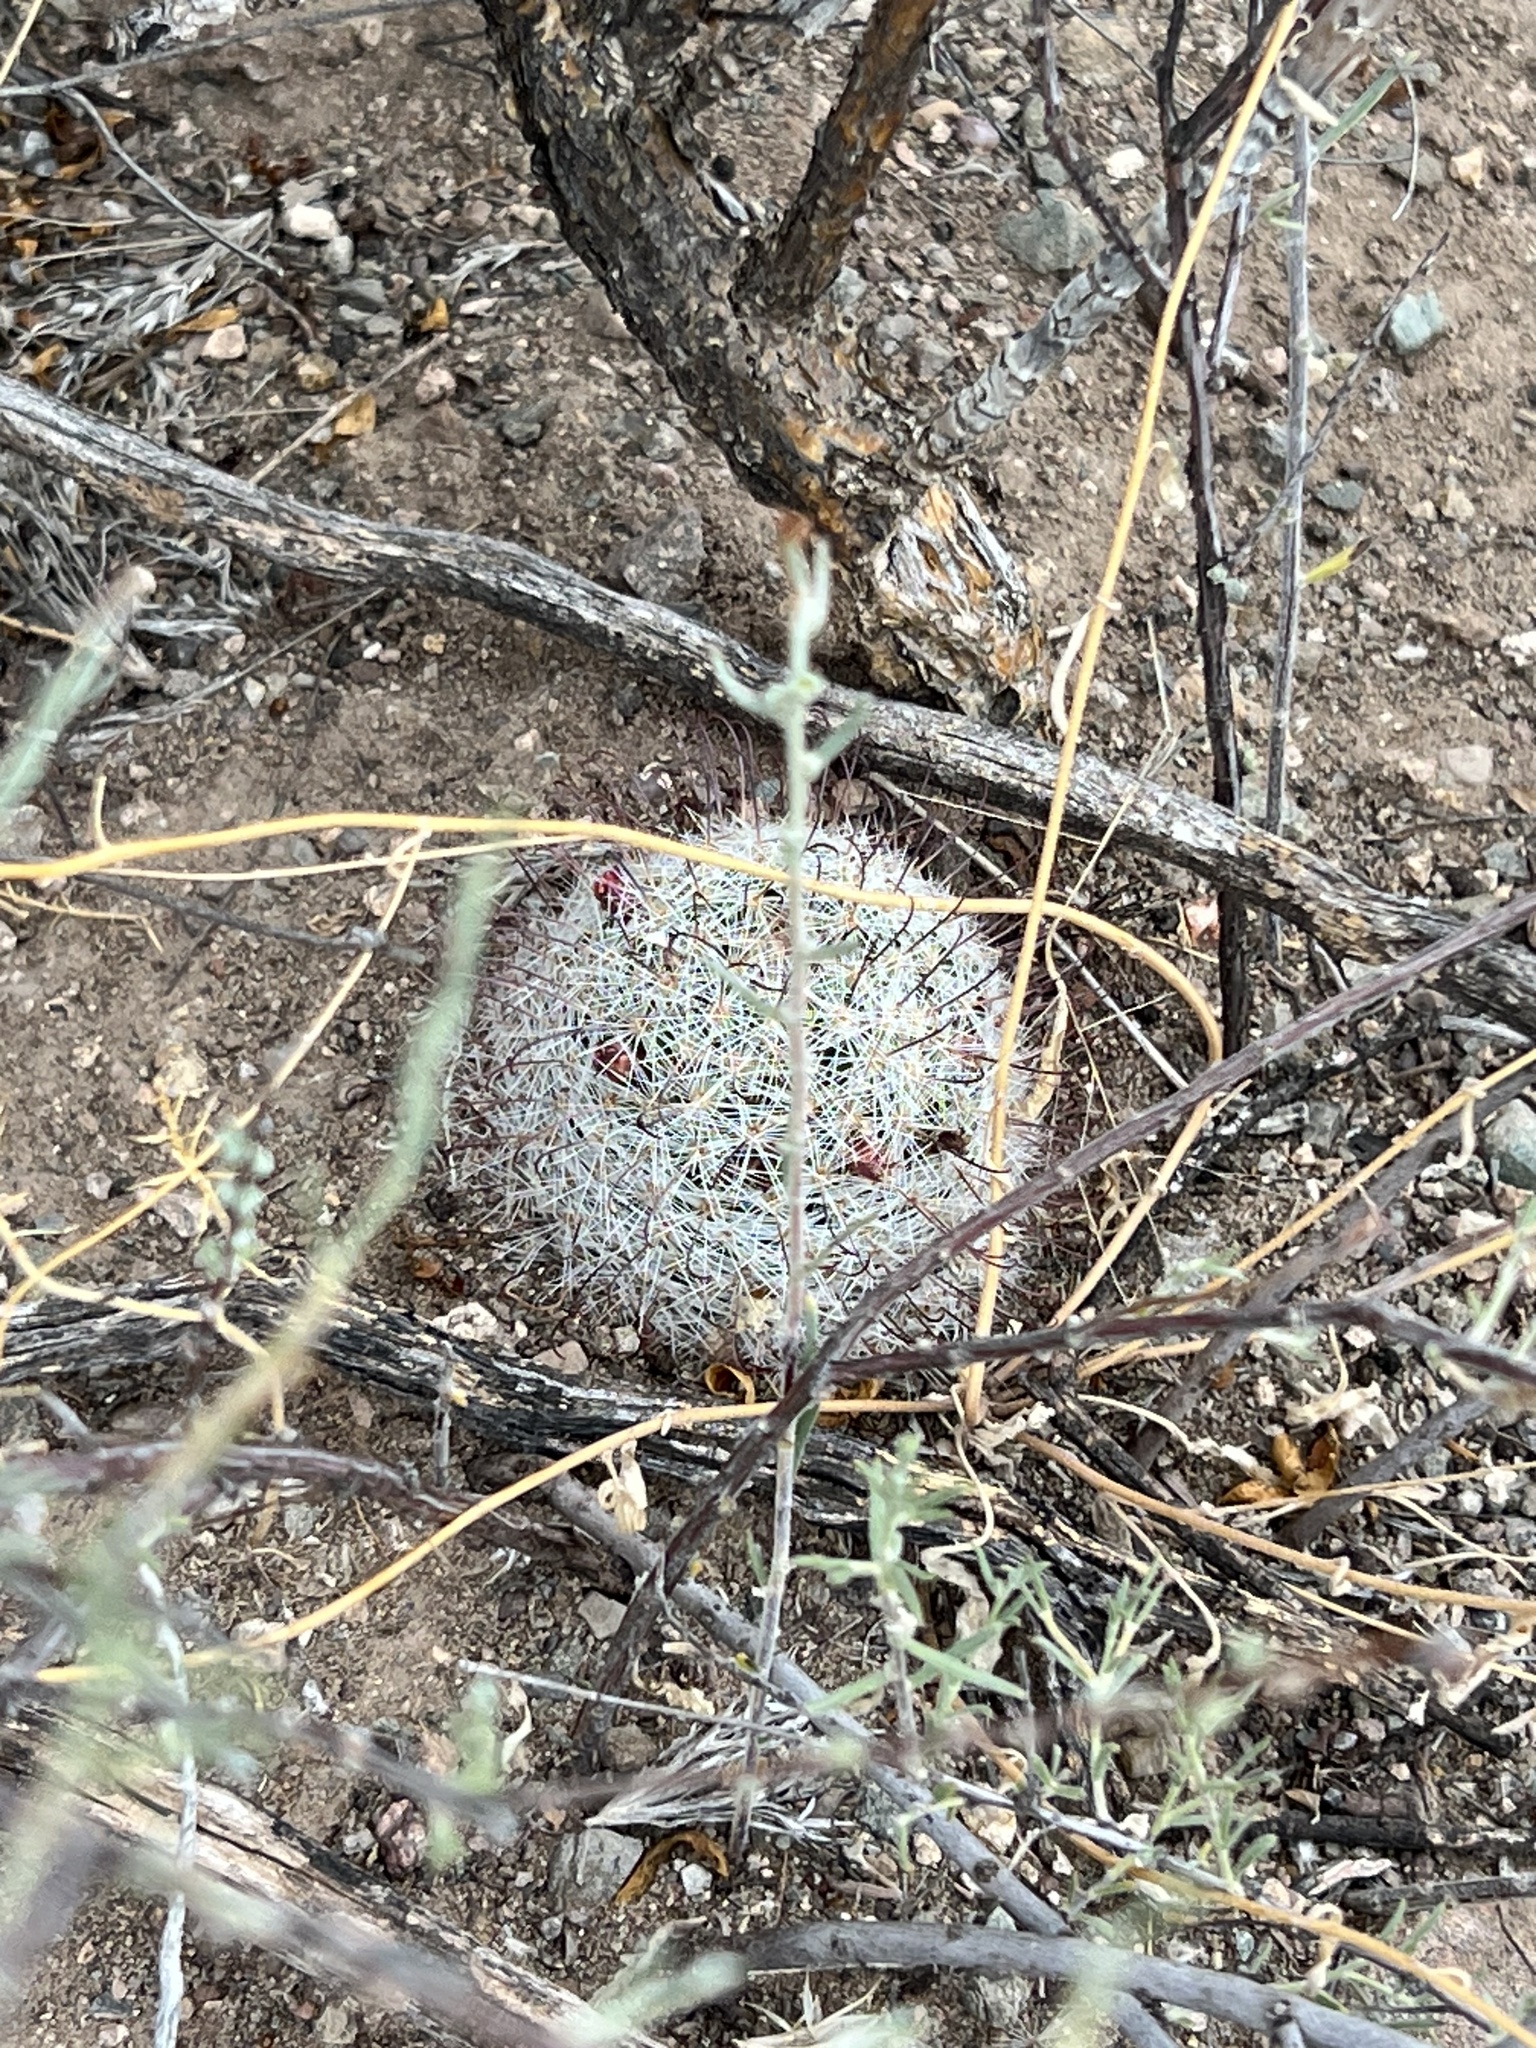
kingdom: Plantae
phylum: Tracheophyta
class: Magnoliopsida
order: Caryophyllales
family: Cactaceae
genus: Cochemiea
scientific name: Cochemiea grahamii
